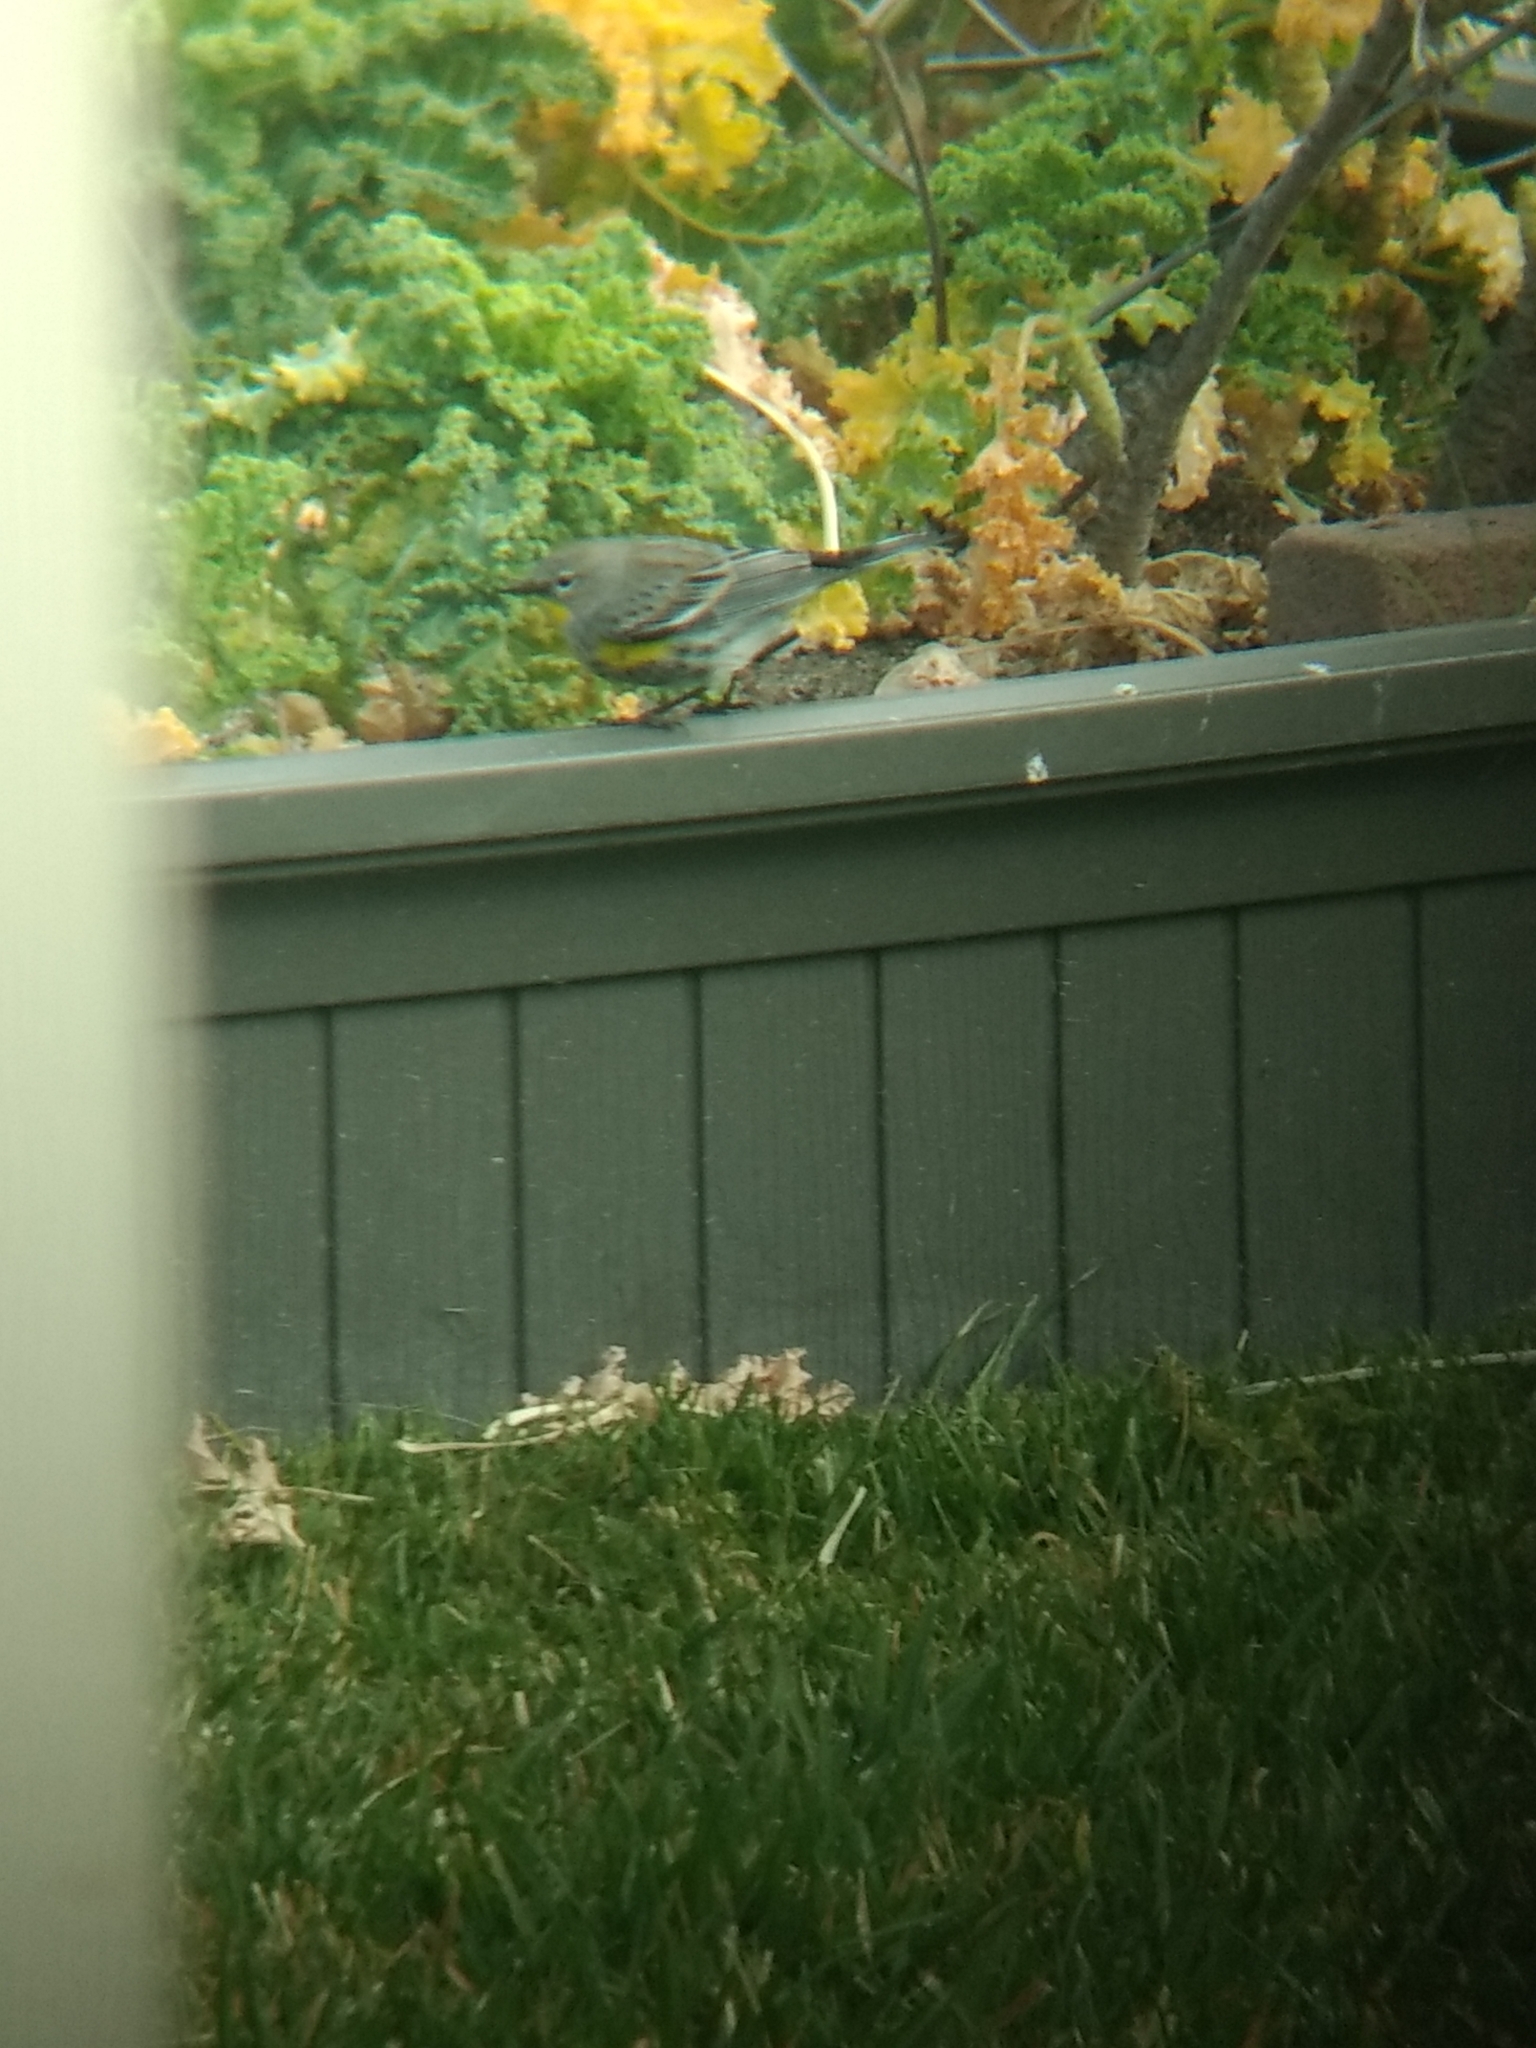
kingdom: Animalia
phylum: Chordata
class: Aves
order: Passeriformes
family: Parulidae
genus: Setophaga
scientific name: Setophaga coronata
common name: Myrtle warbler
